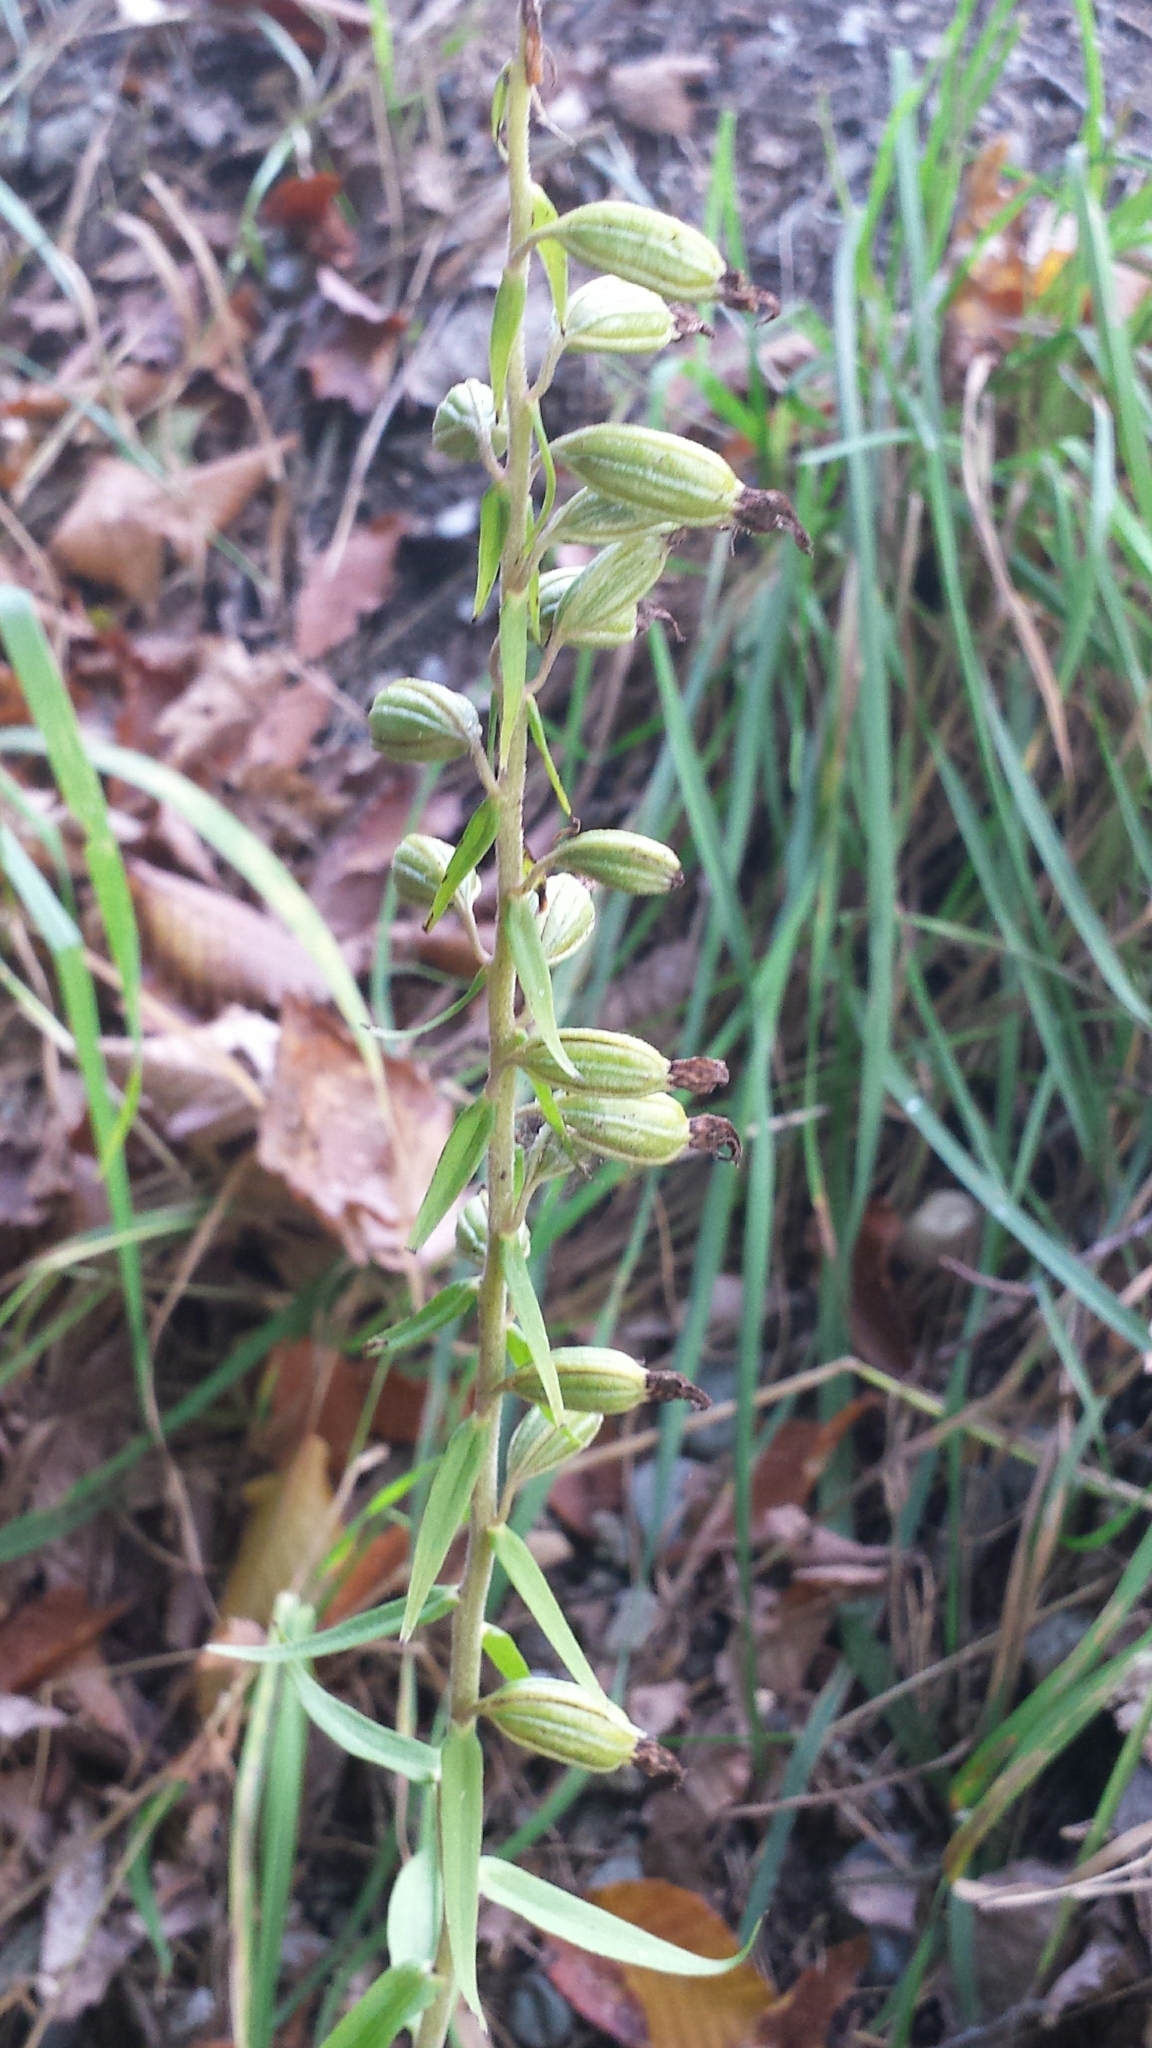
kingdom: Plantae
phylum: Tracheophyta
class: Liliopsida
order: Asparagales
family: Orchidaceae
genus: Epipactis
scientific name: Epipactis helleborine
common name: Broad-leaved helleborine
